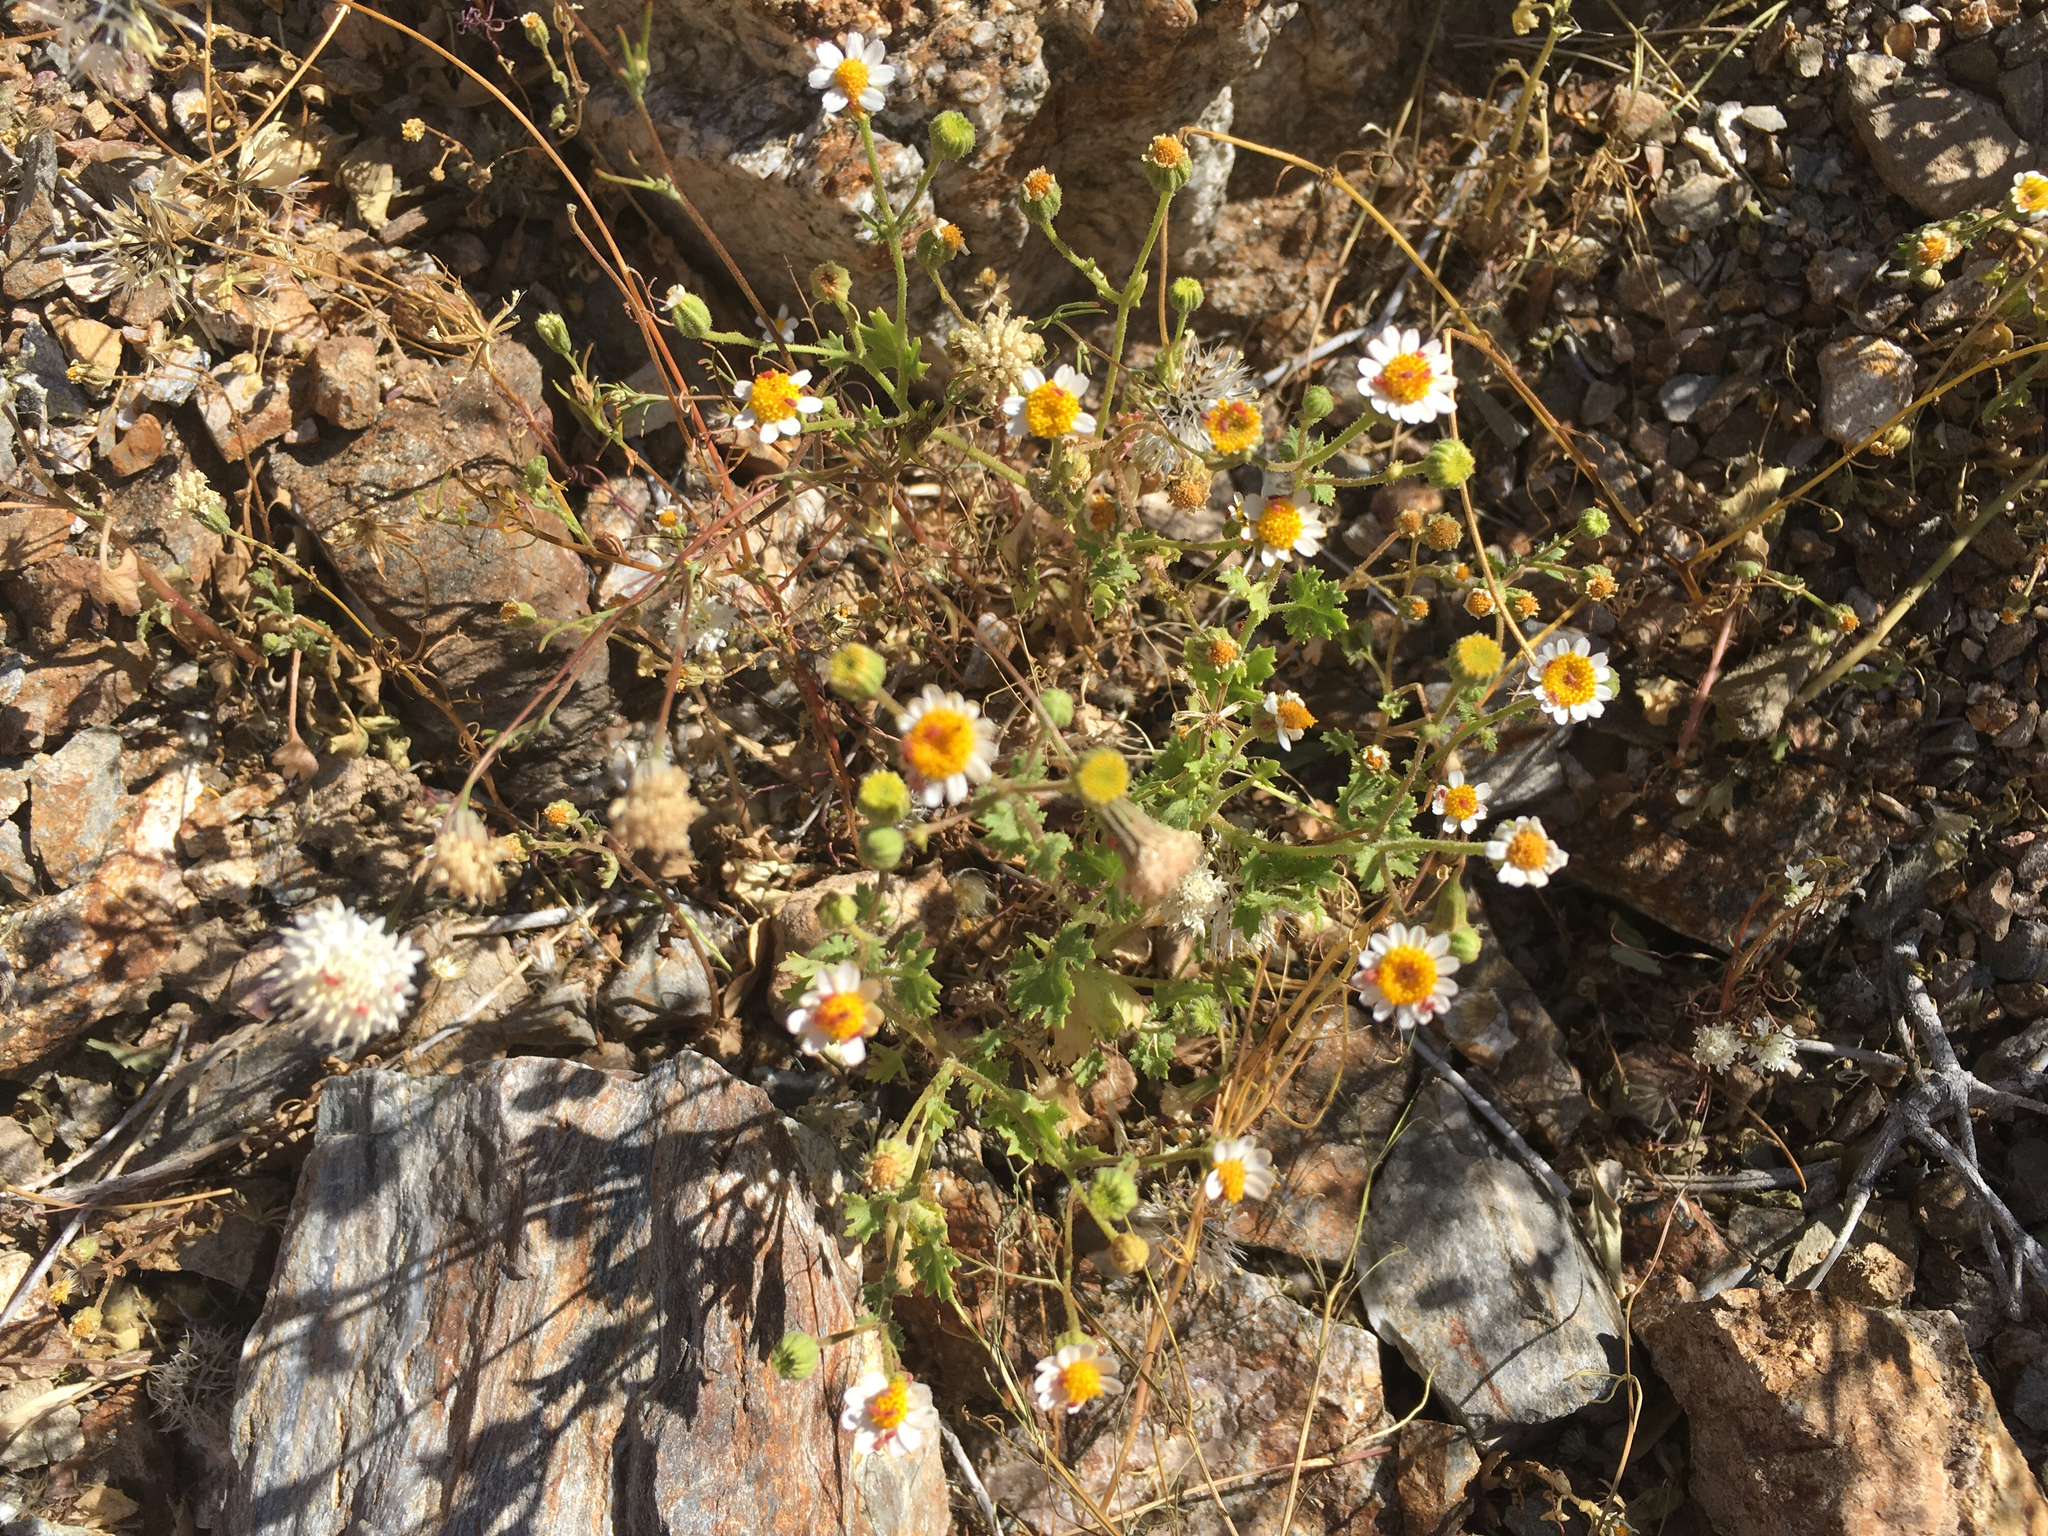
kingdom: Plantae
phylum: Tracheophyta
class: Magnoliopsida
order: Asterales
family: Asteraceae
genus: Laphamia
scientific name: Laphamia emoryi
